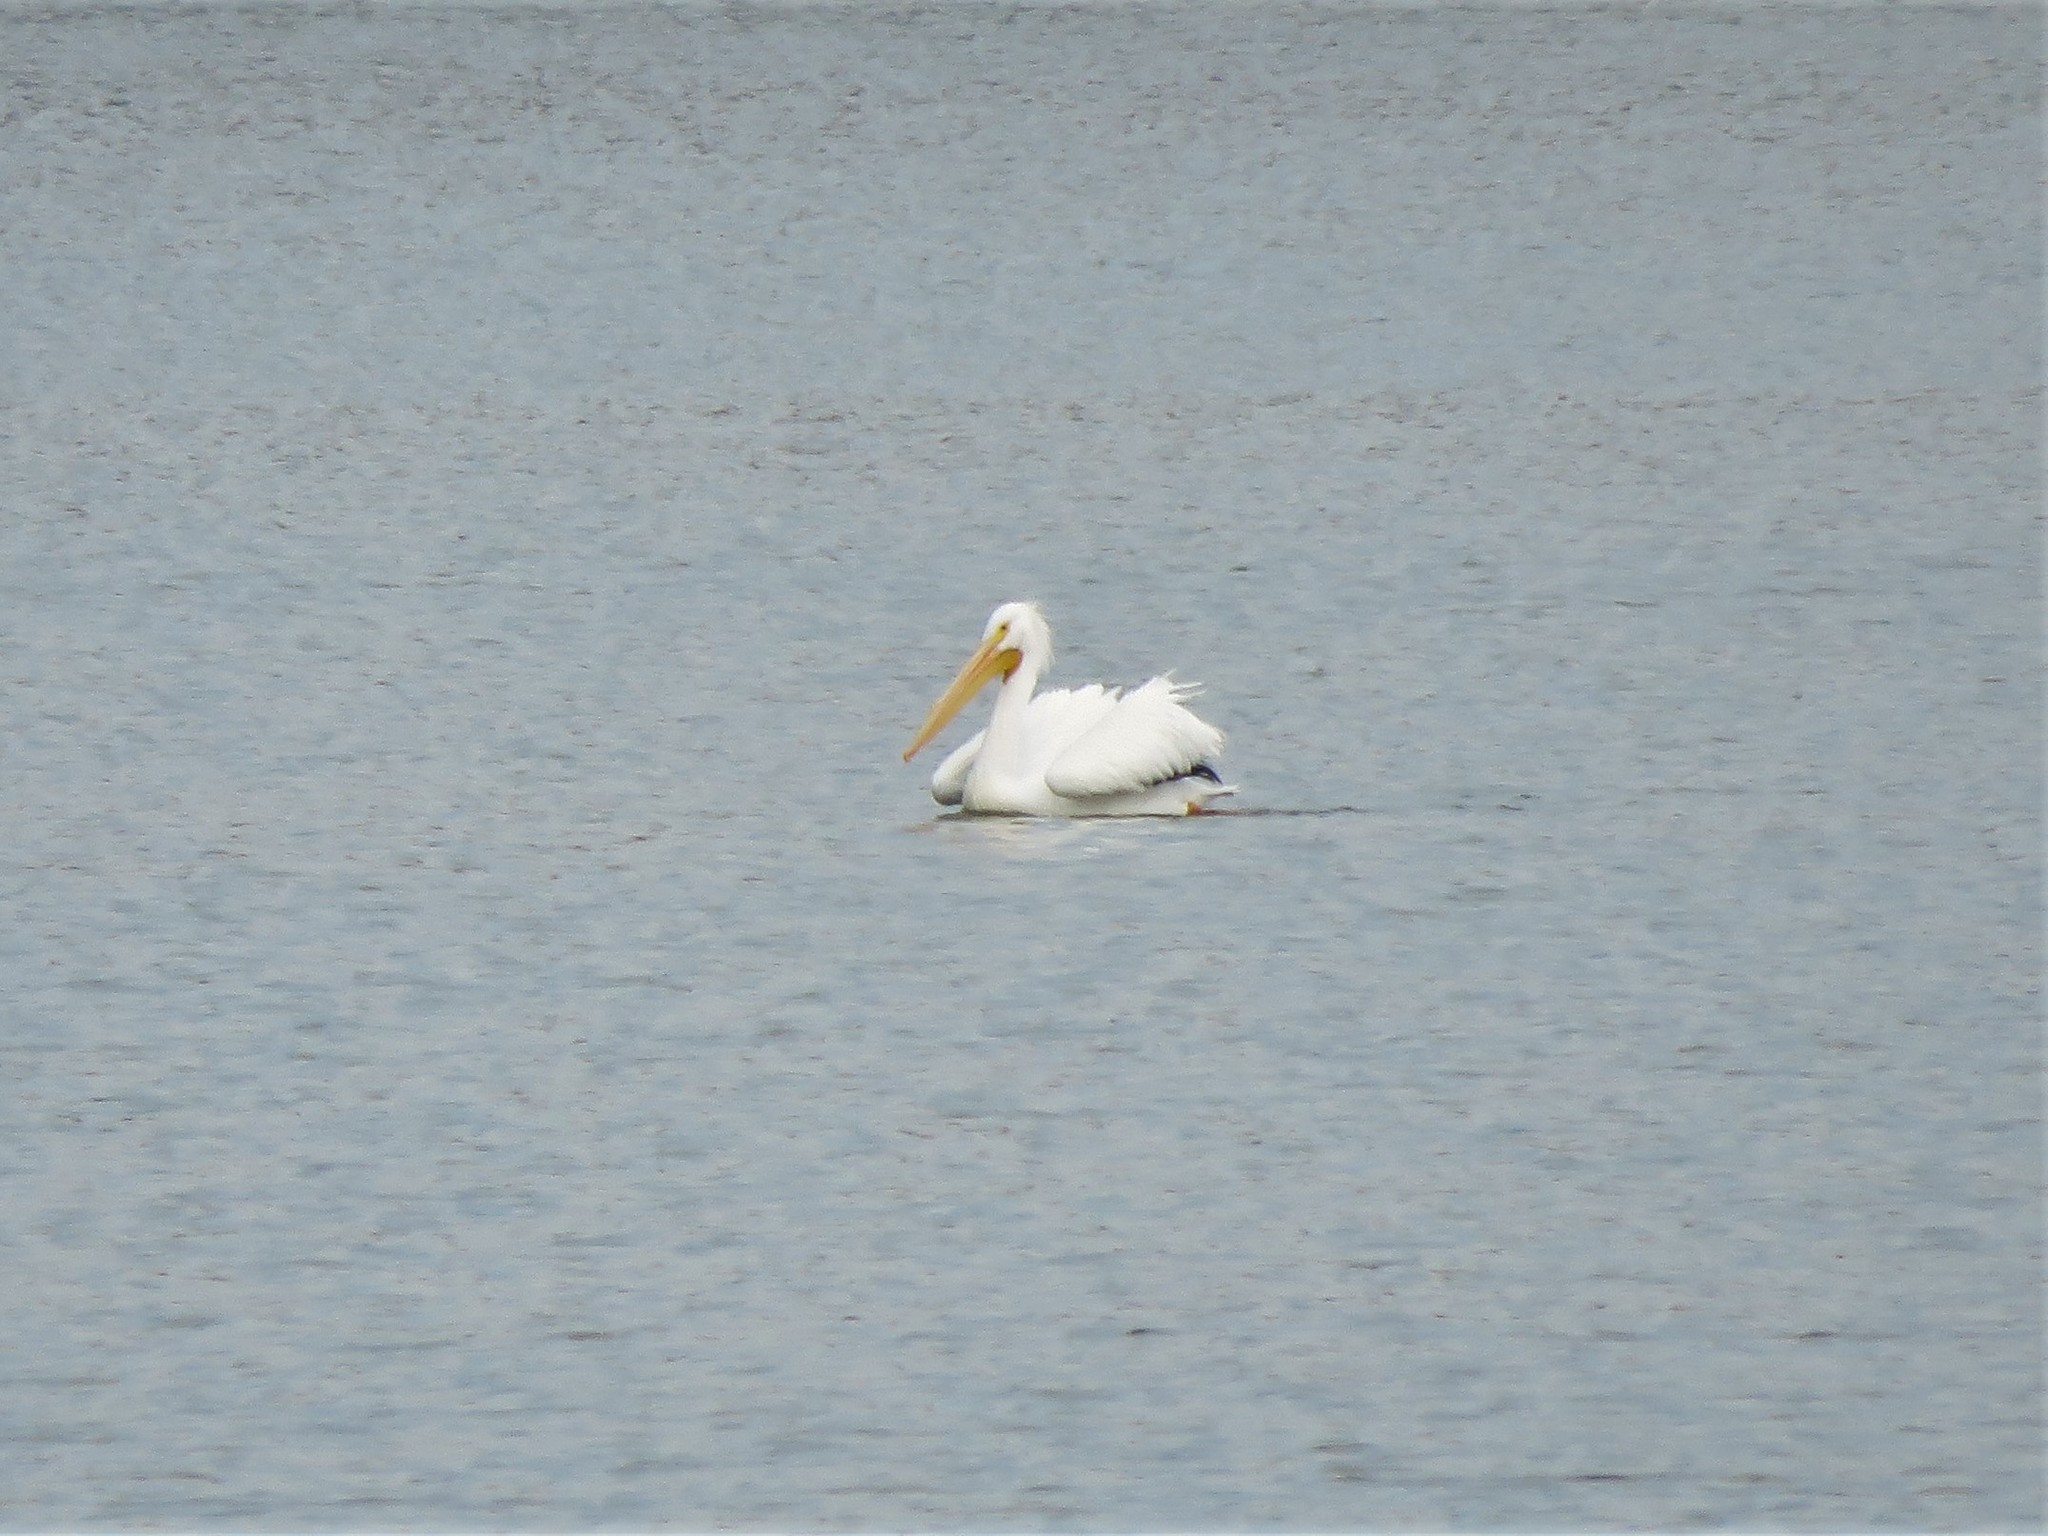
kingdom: Animalia
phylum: Chordata
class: Aves
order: Pelecaniformes
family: Pelecanidae
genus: Pelecanus
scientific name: Pelecanus erythrorhynchos
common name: American white pelican
